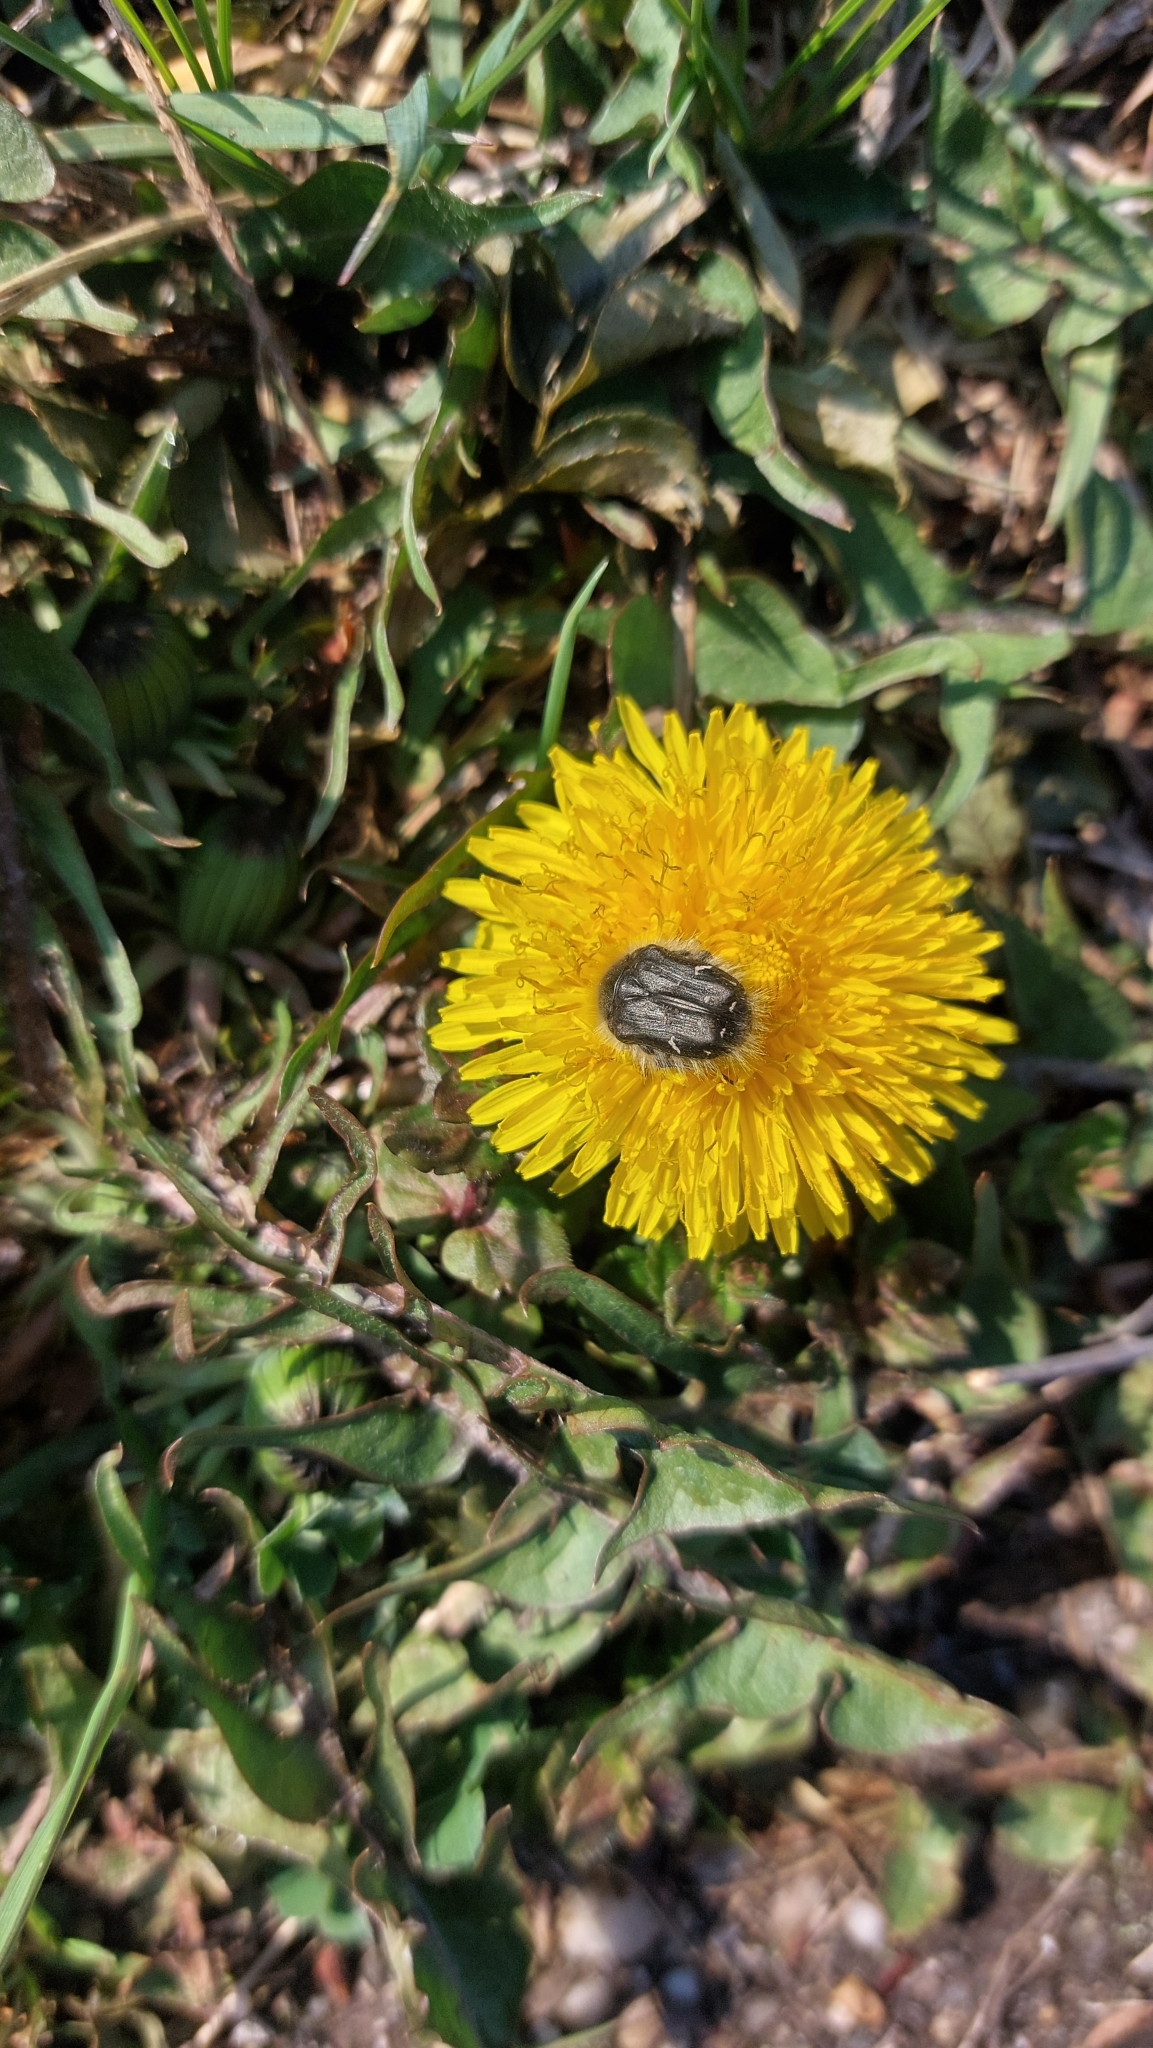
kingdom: Animalia
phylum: Arthropoda
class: Insecta
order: Coleoptera
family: Scarabaeidae
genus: Tropinota
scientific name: Tropinota hirta
